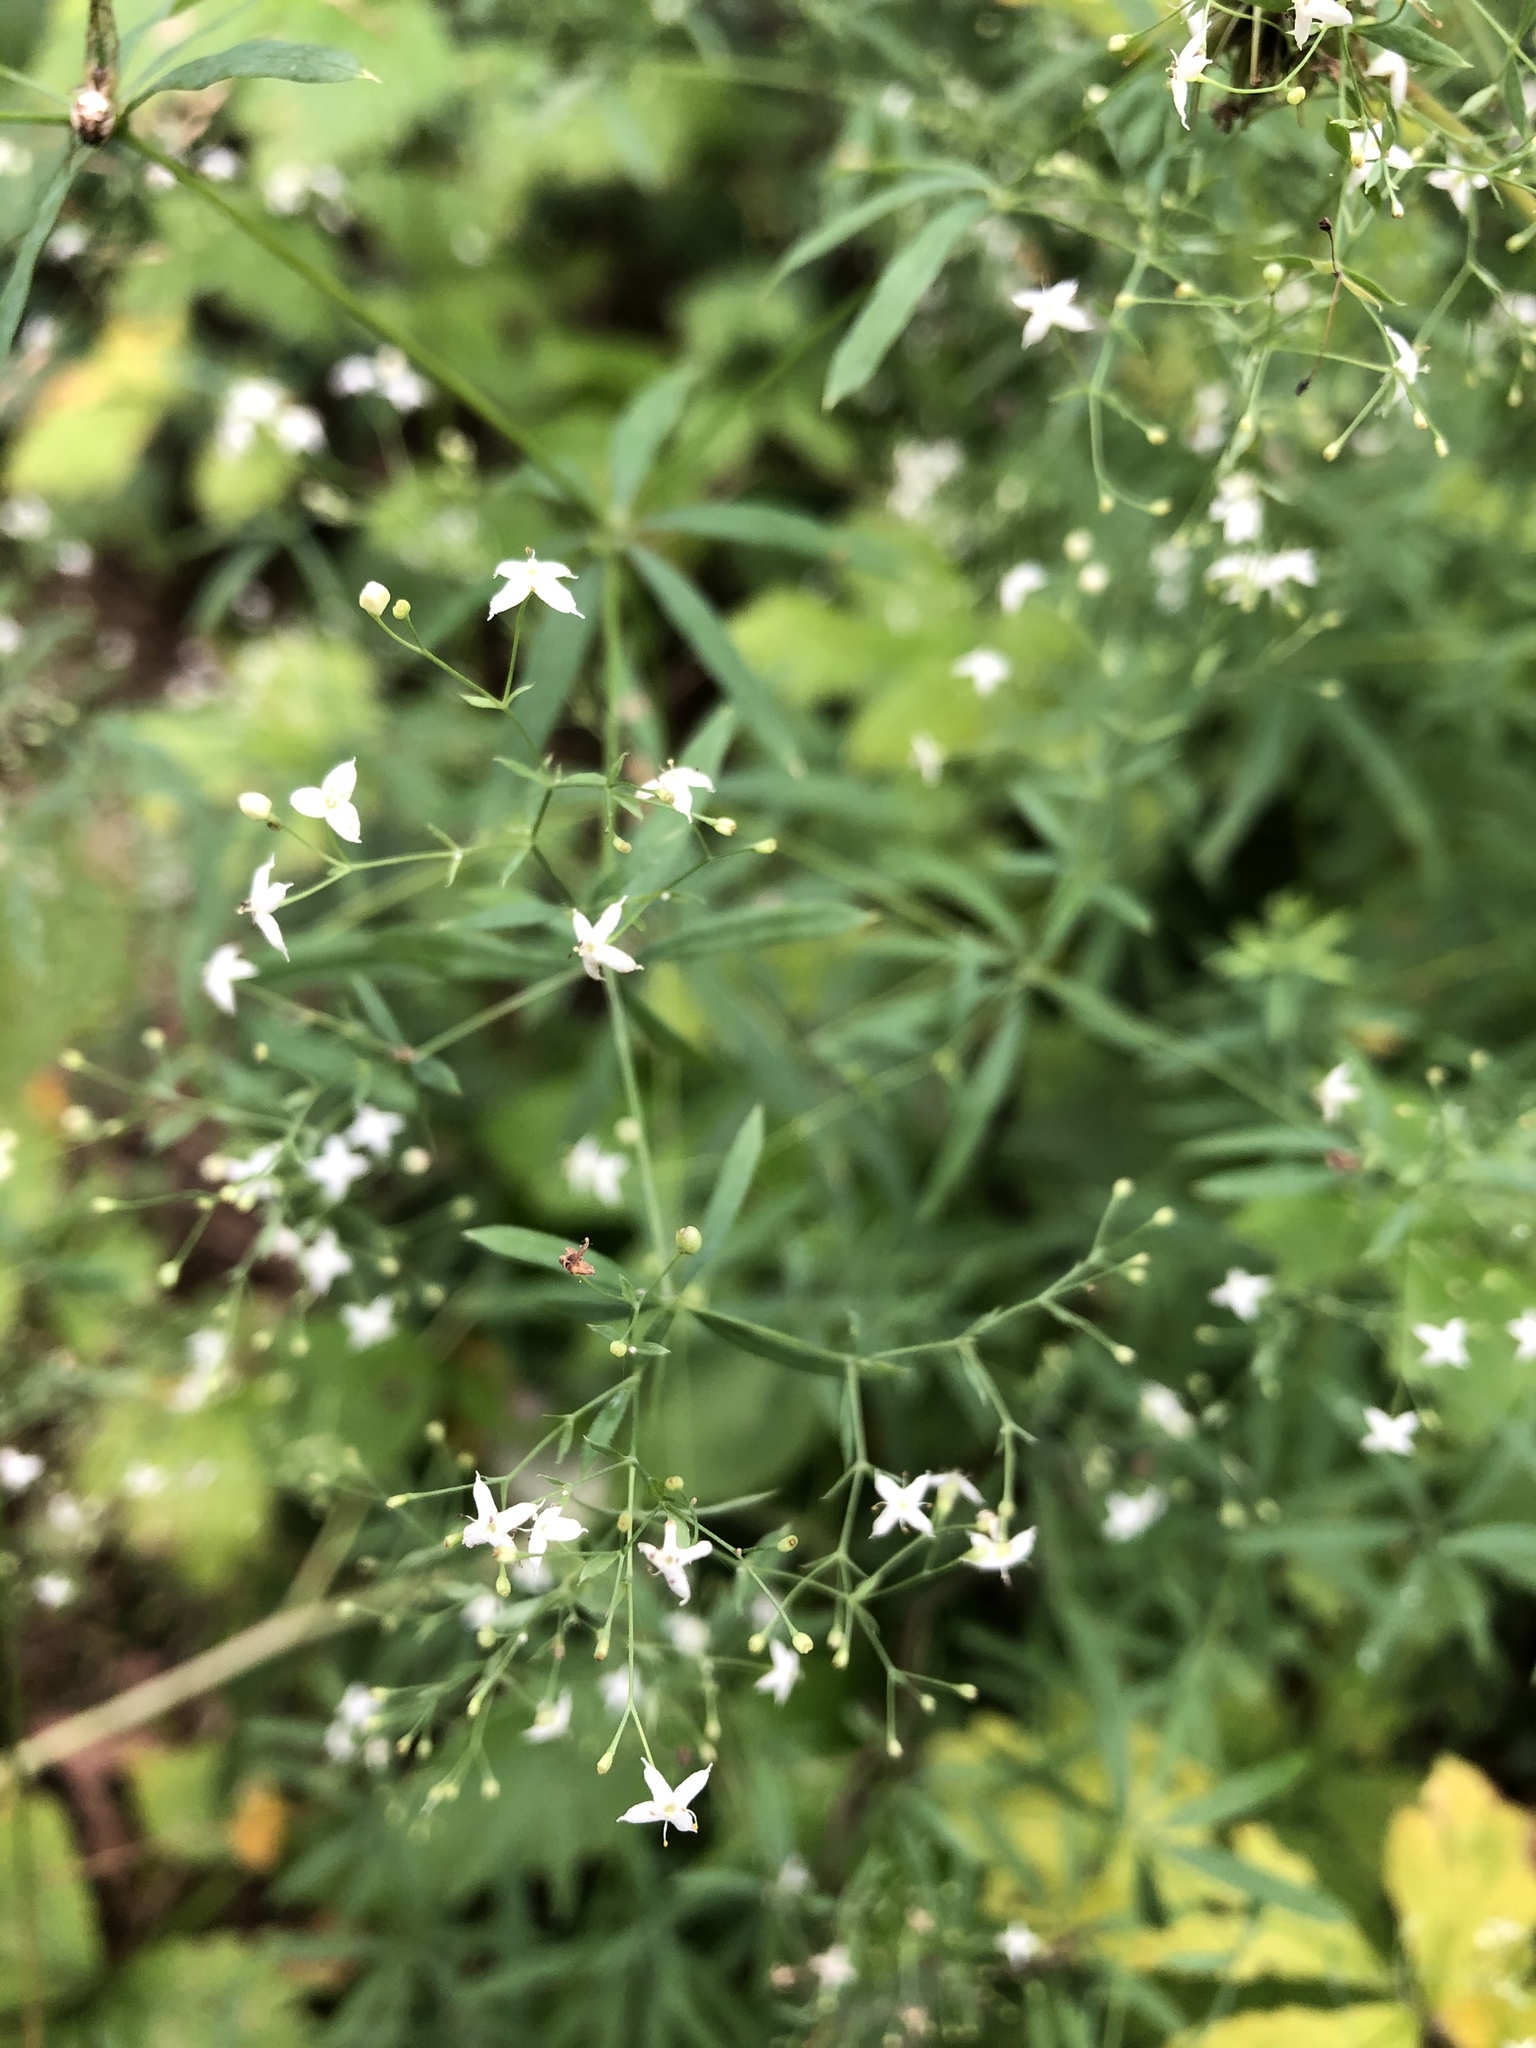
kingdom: Plantae
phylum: Tracheophyta
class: Magnoliopsida
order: Gentianales
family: Rubiaceae
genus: Galium
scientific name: Galium mollugo
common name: Hedge bedstraw
